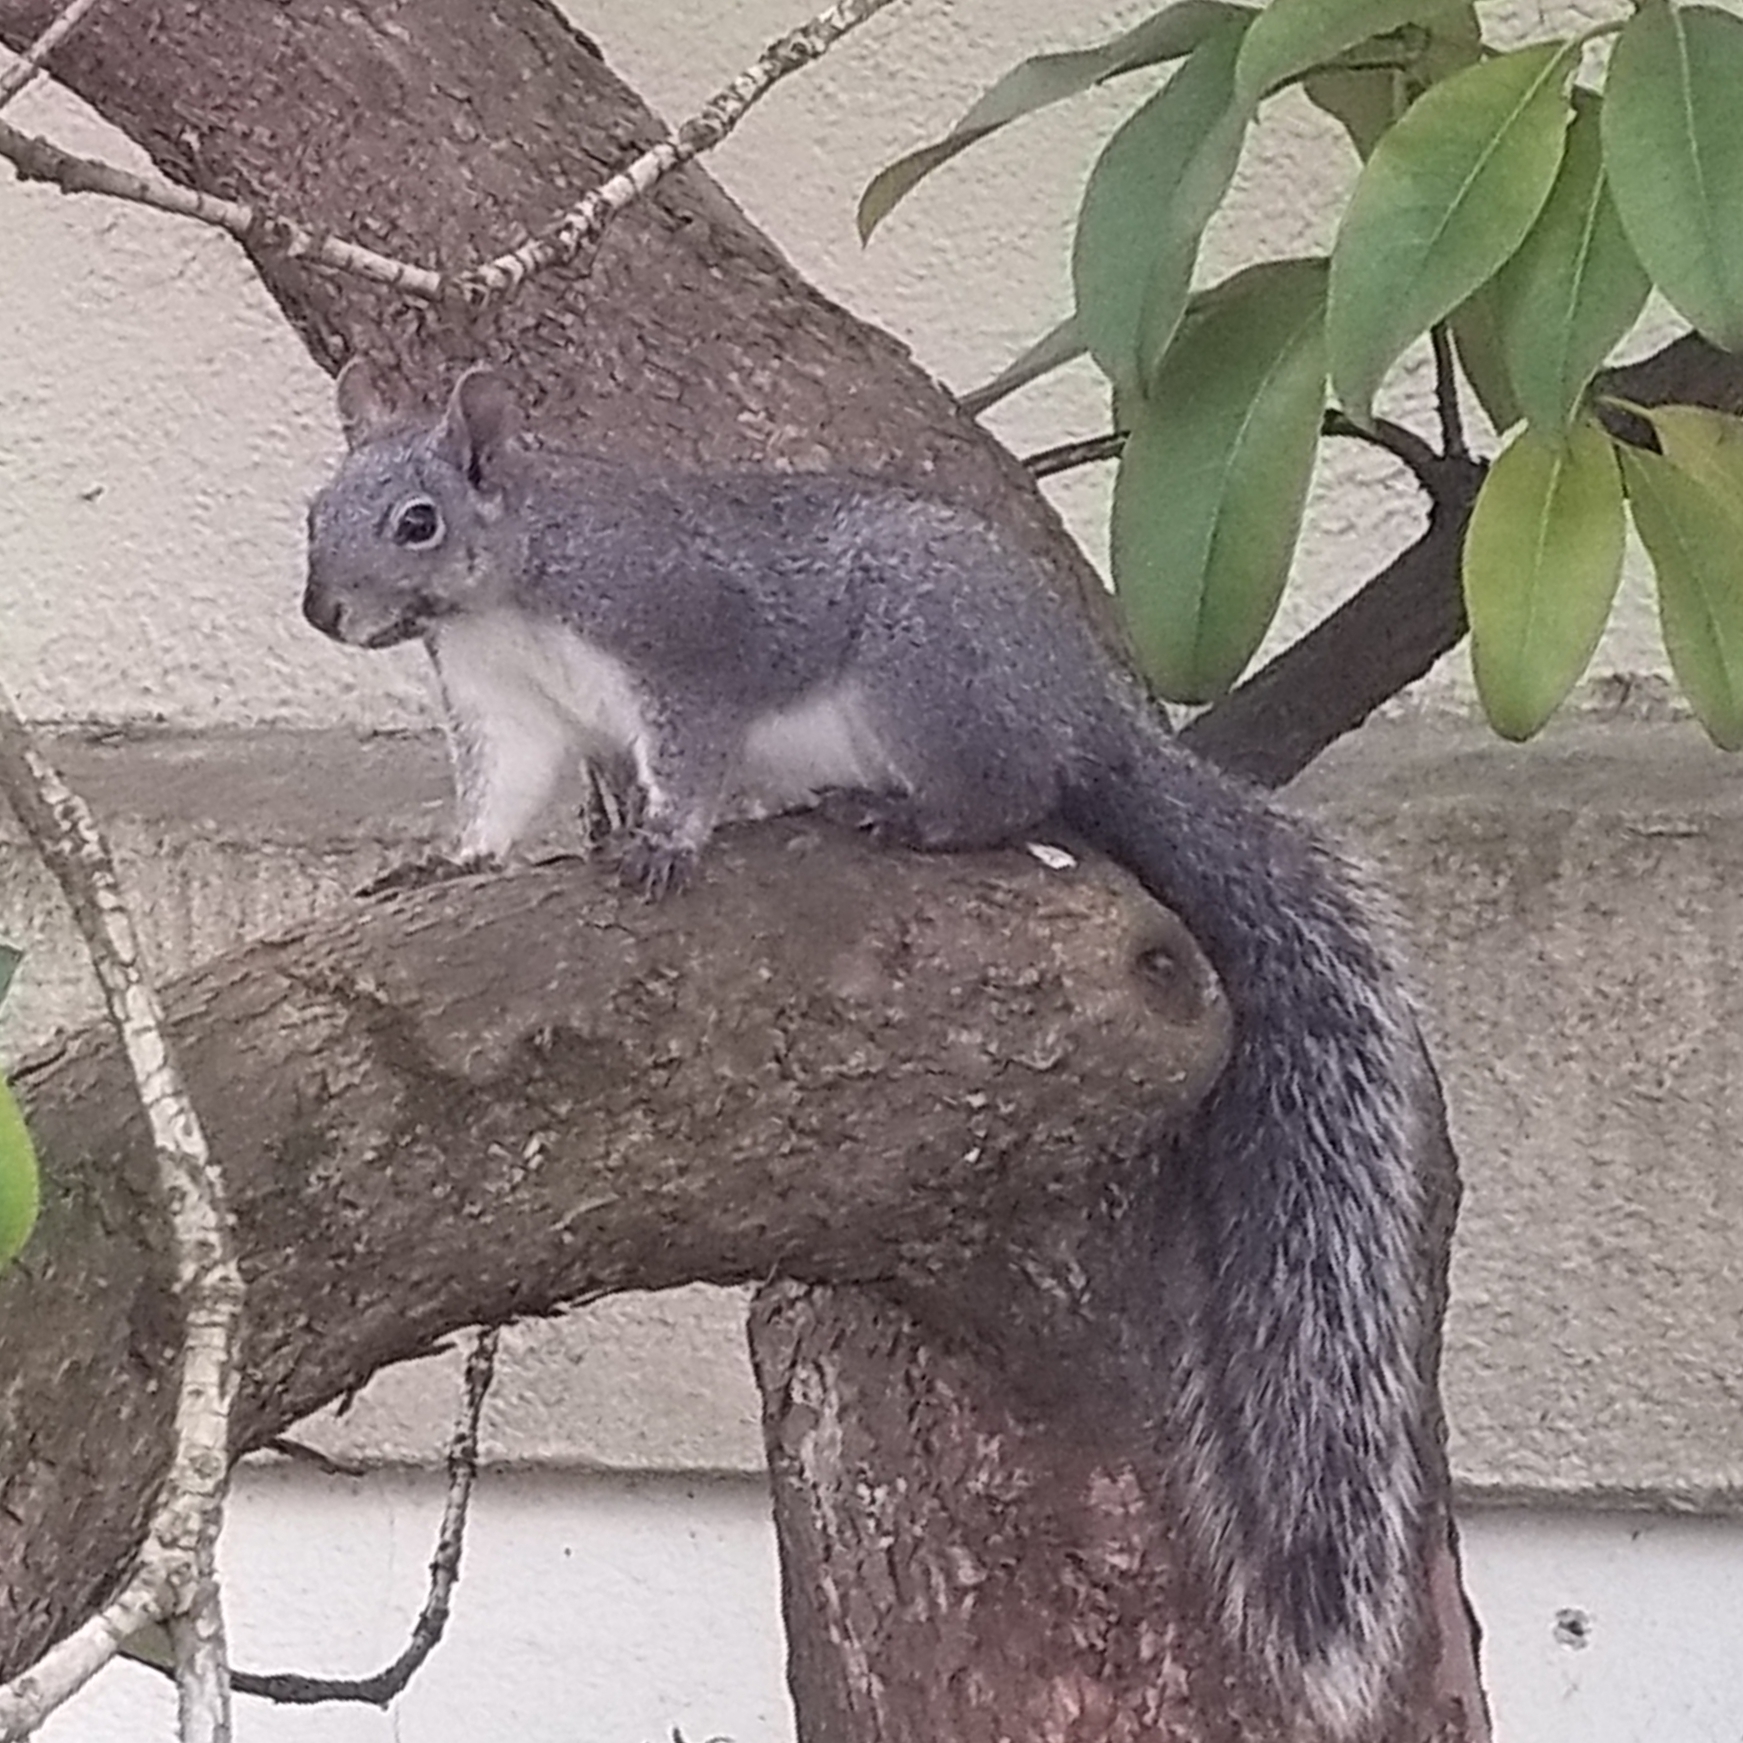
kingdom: Animalia
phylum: Chordata
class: Mammalia
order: Rodentia
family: Sciuridae
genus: Sciurus
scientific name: Sciurus griseus
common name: Western gray squirrel
